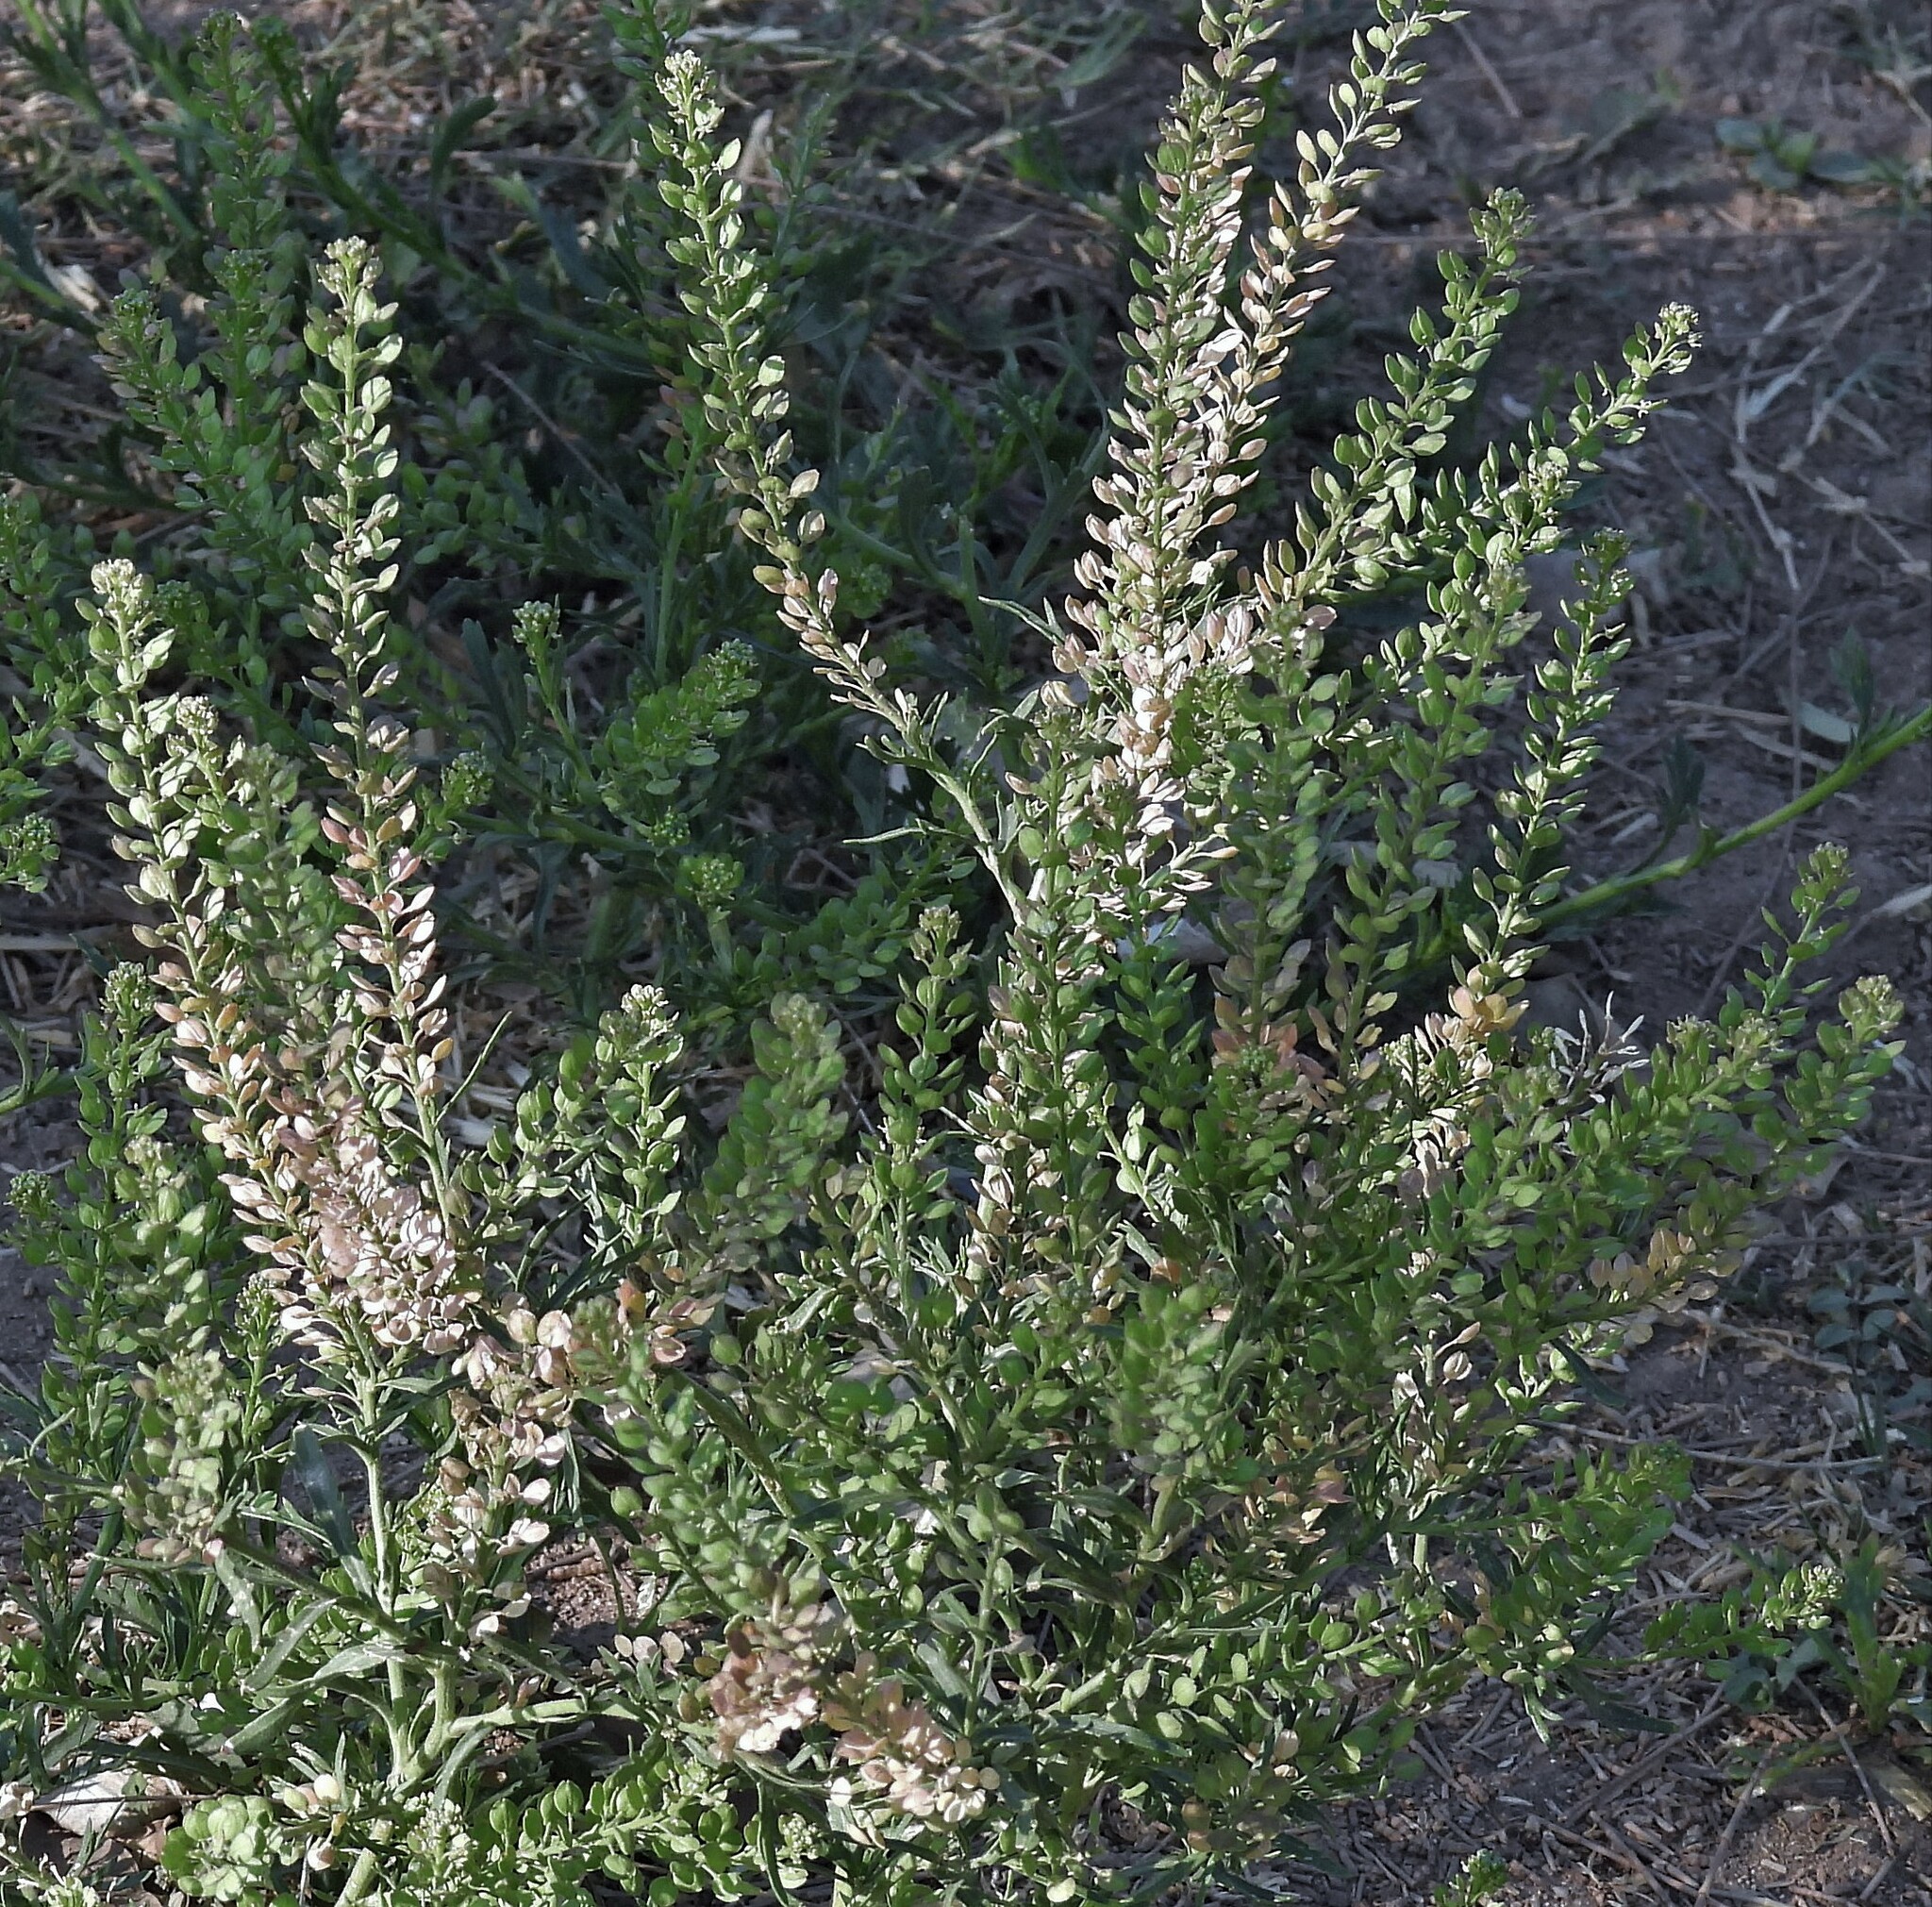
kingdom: Plantae
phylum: Tracheophyta
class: Magnoliopsida
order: Brassicales
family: Brassicaceae
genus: Lepidium
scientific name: Lepidium bonariense
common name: Argentine pepperwort
